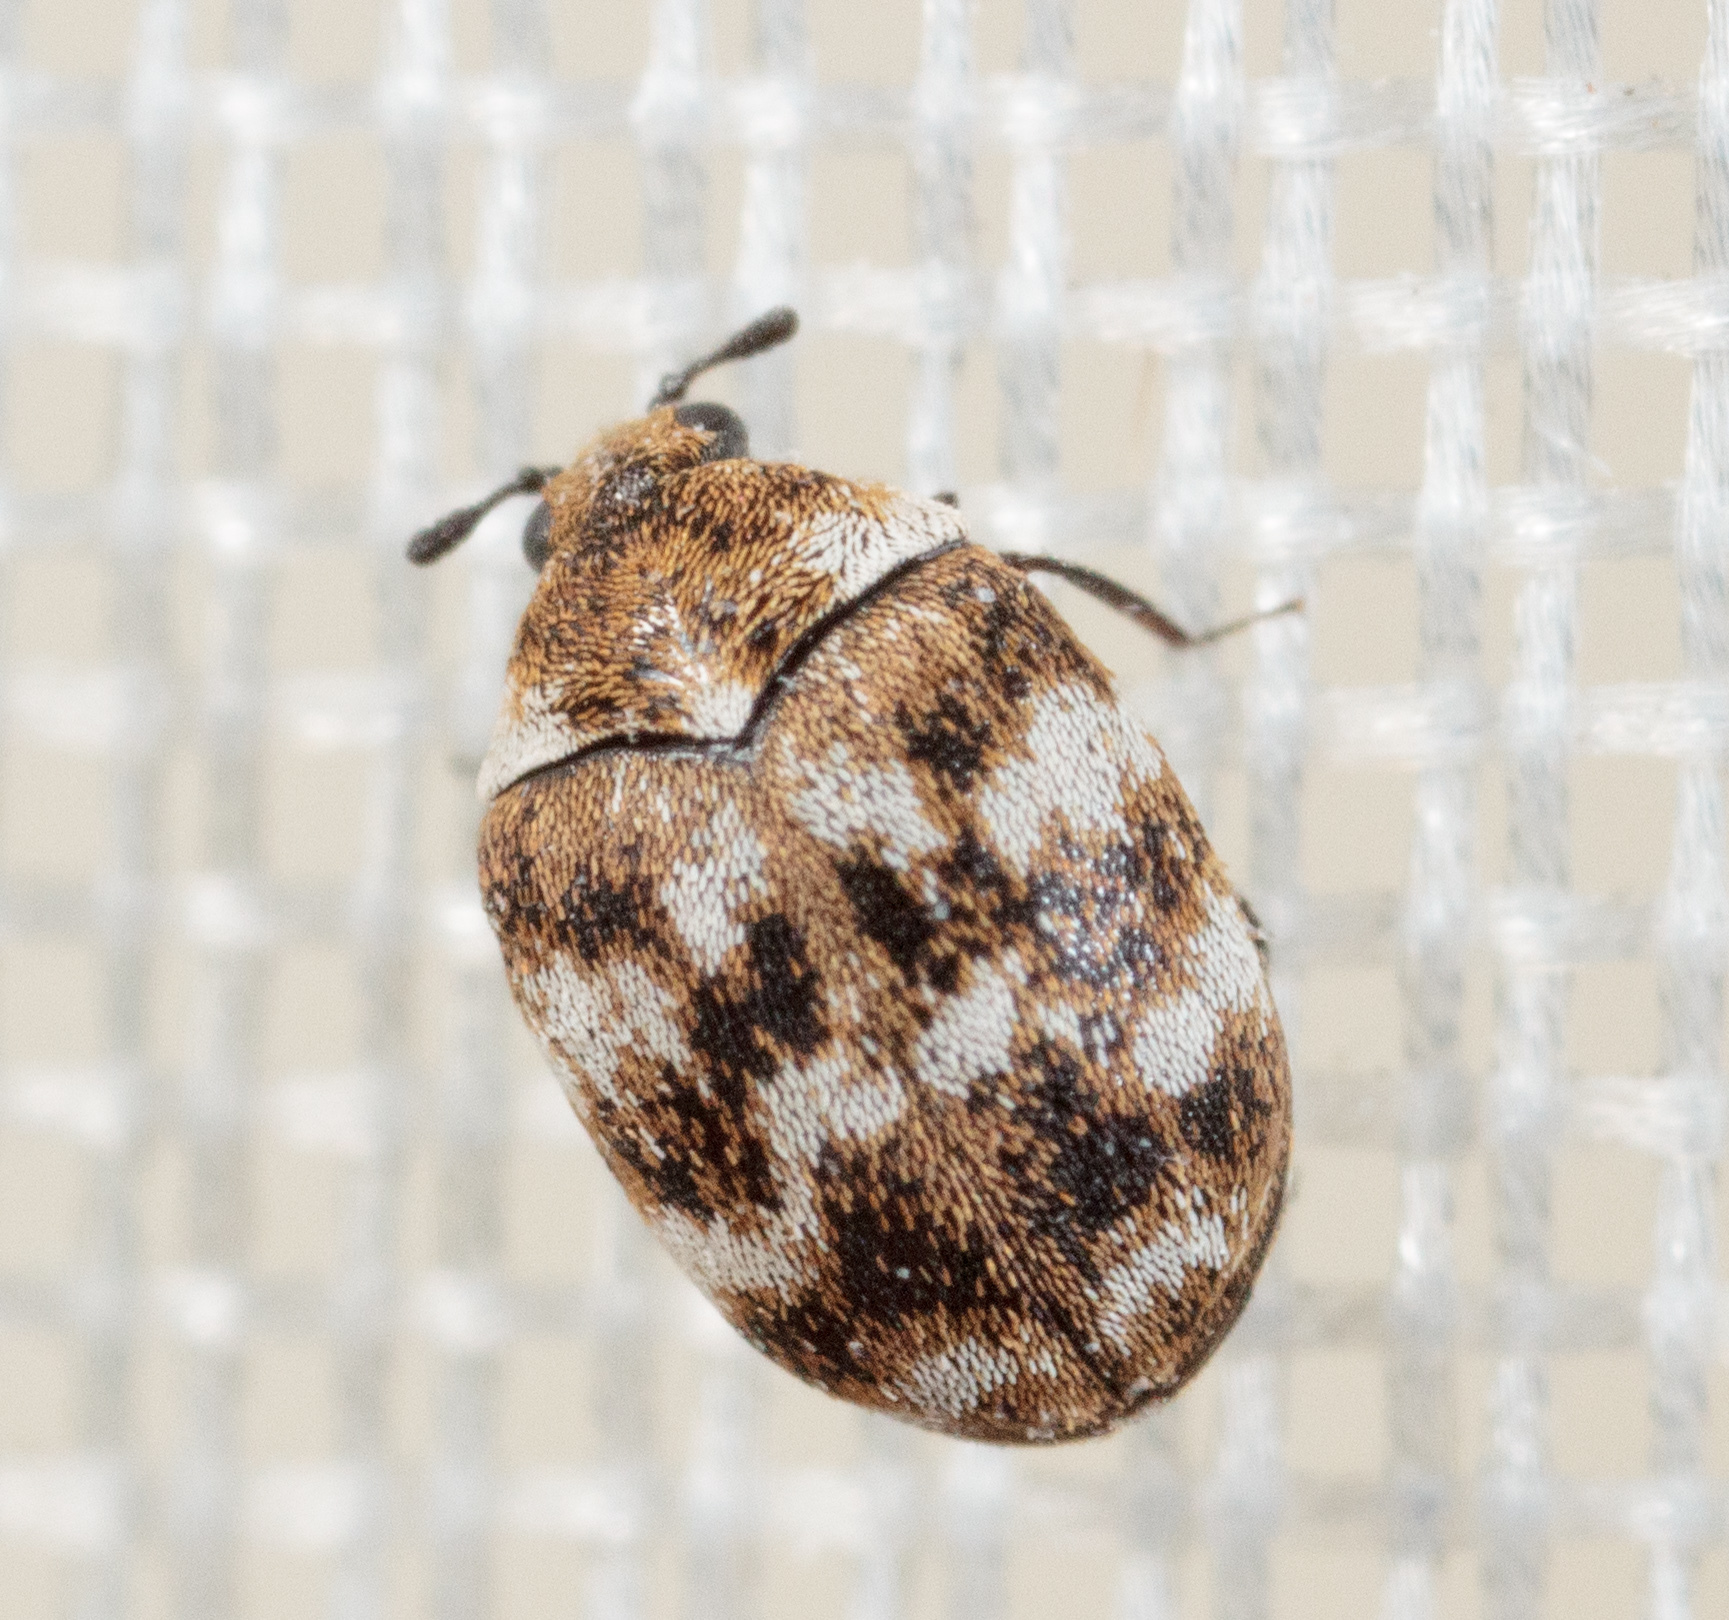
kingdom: Animalia
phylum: Arthropoda
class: Insecta
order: Coleoptera
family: Dermestidae
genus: Anthrenus
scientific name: Anthrenus verbasci
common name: Varied carpet beetle
